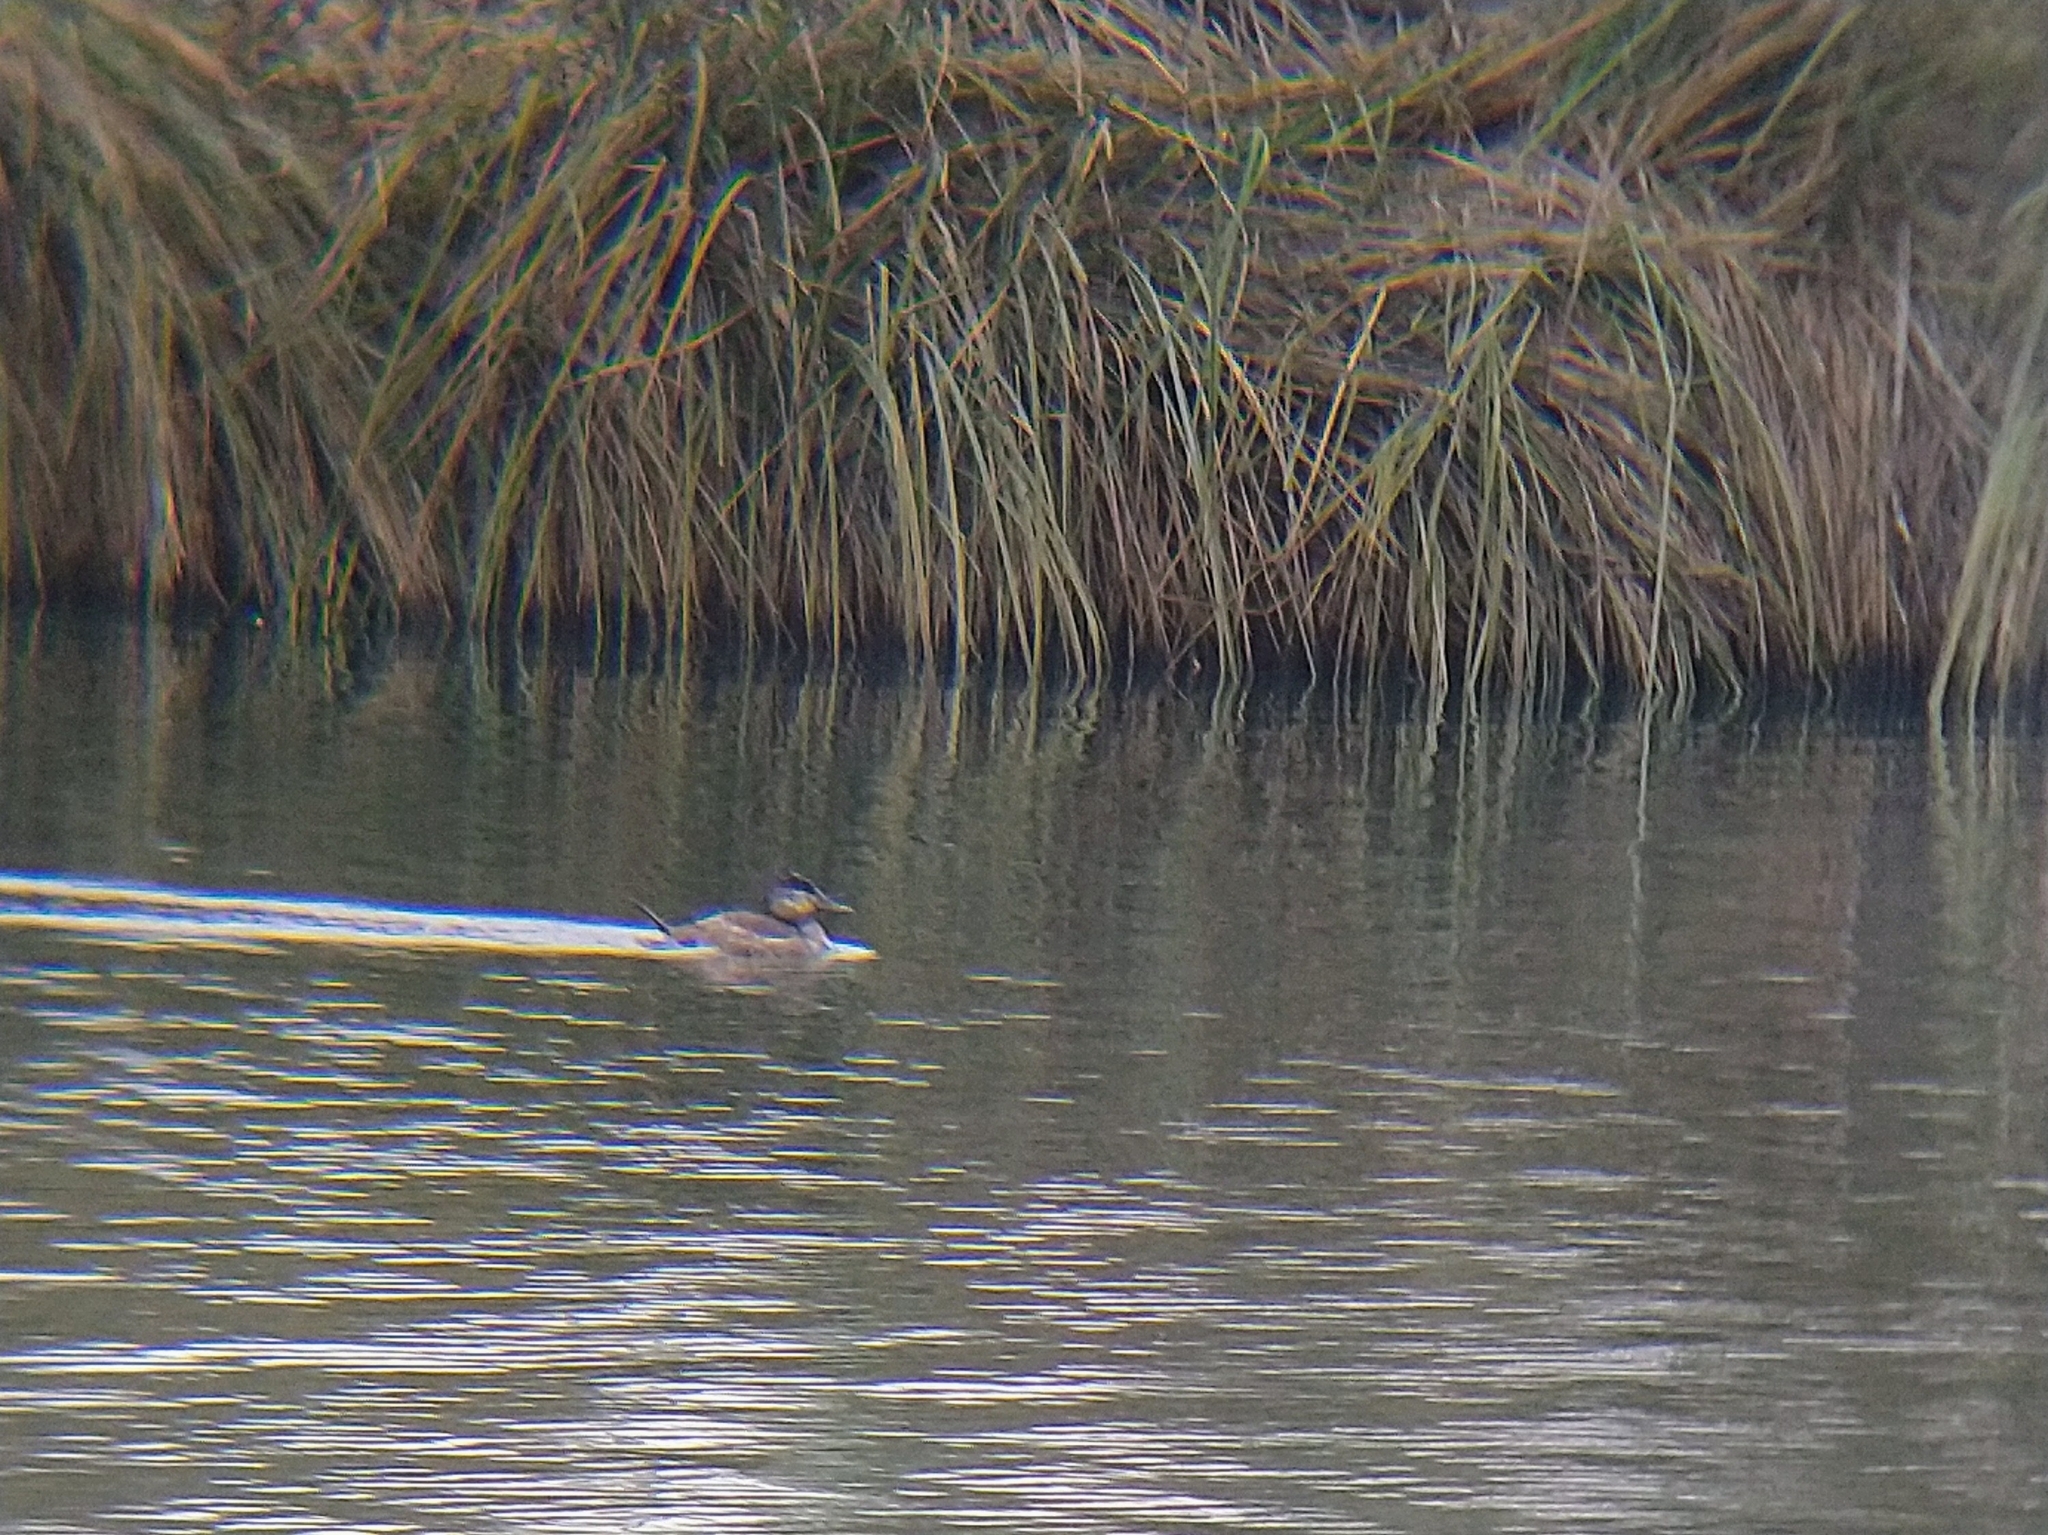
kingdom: Animalia
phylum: Chordata
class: Aves
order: Anseriformes
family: Anatidae
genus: Oxyura
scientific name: Oxyura jamaicensis
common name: Ruddy duck
